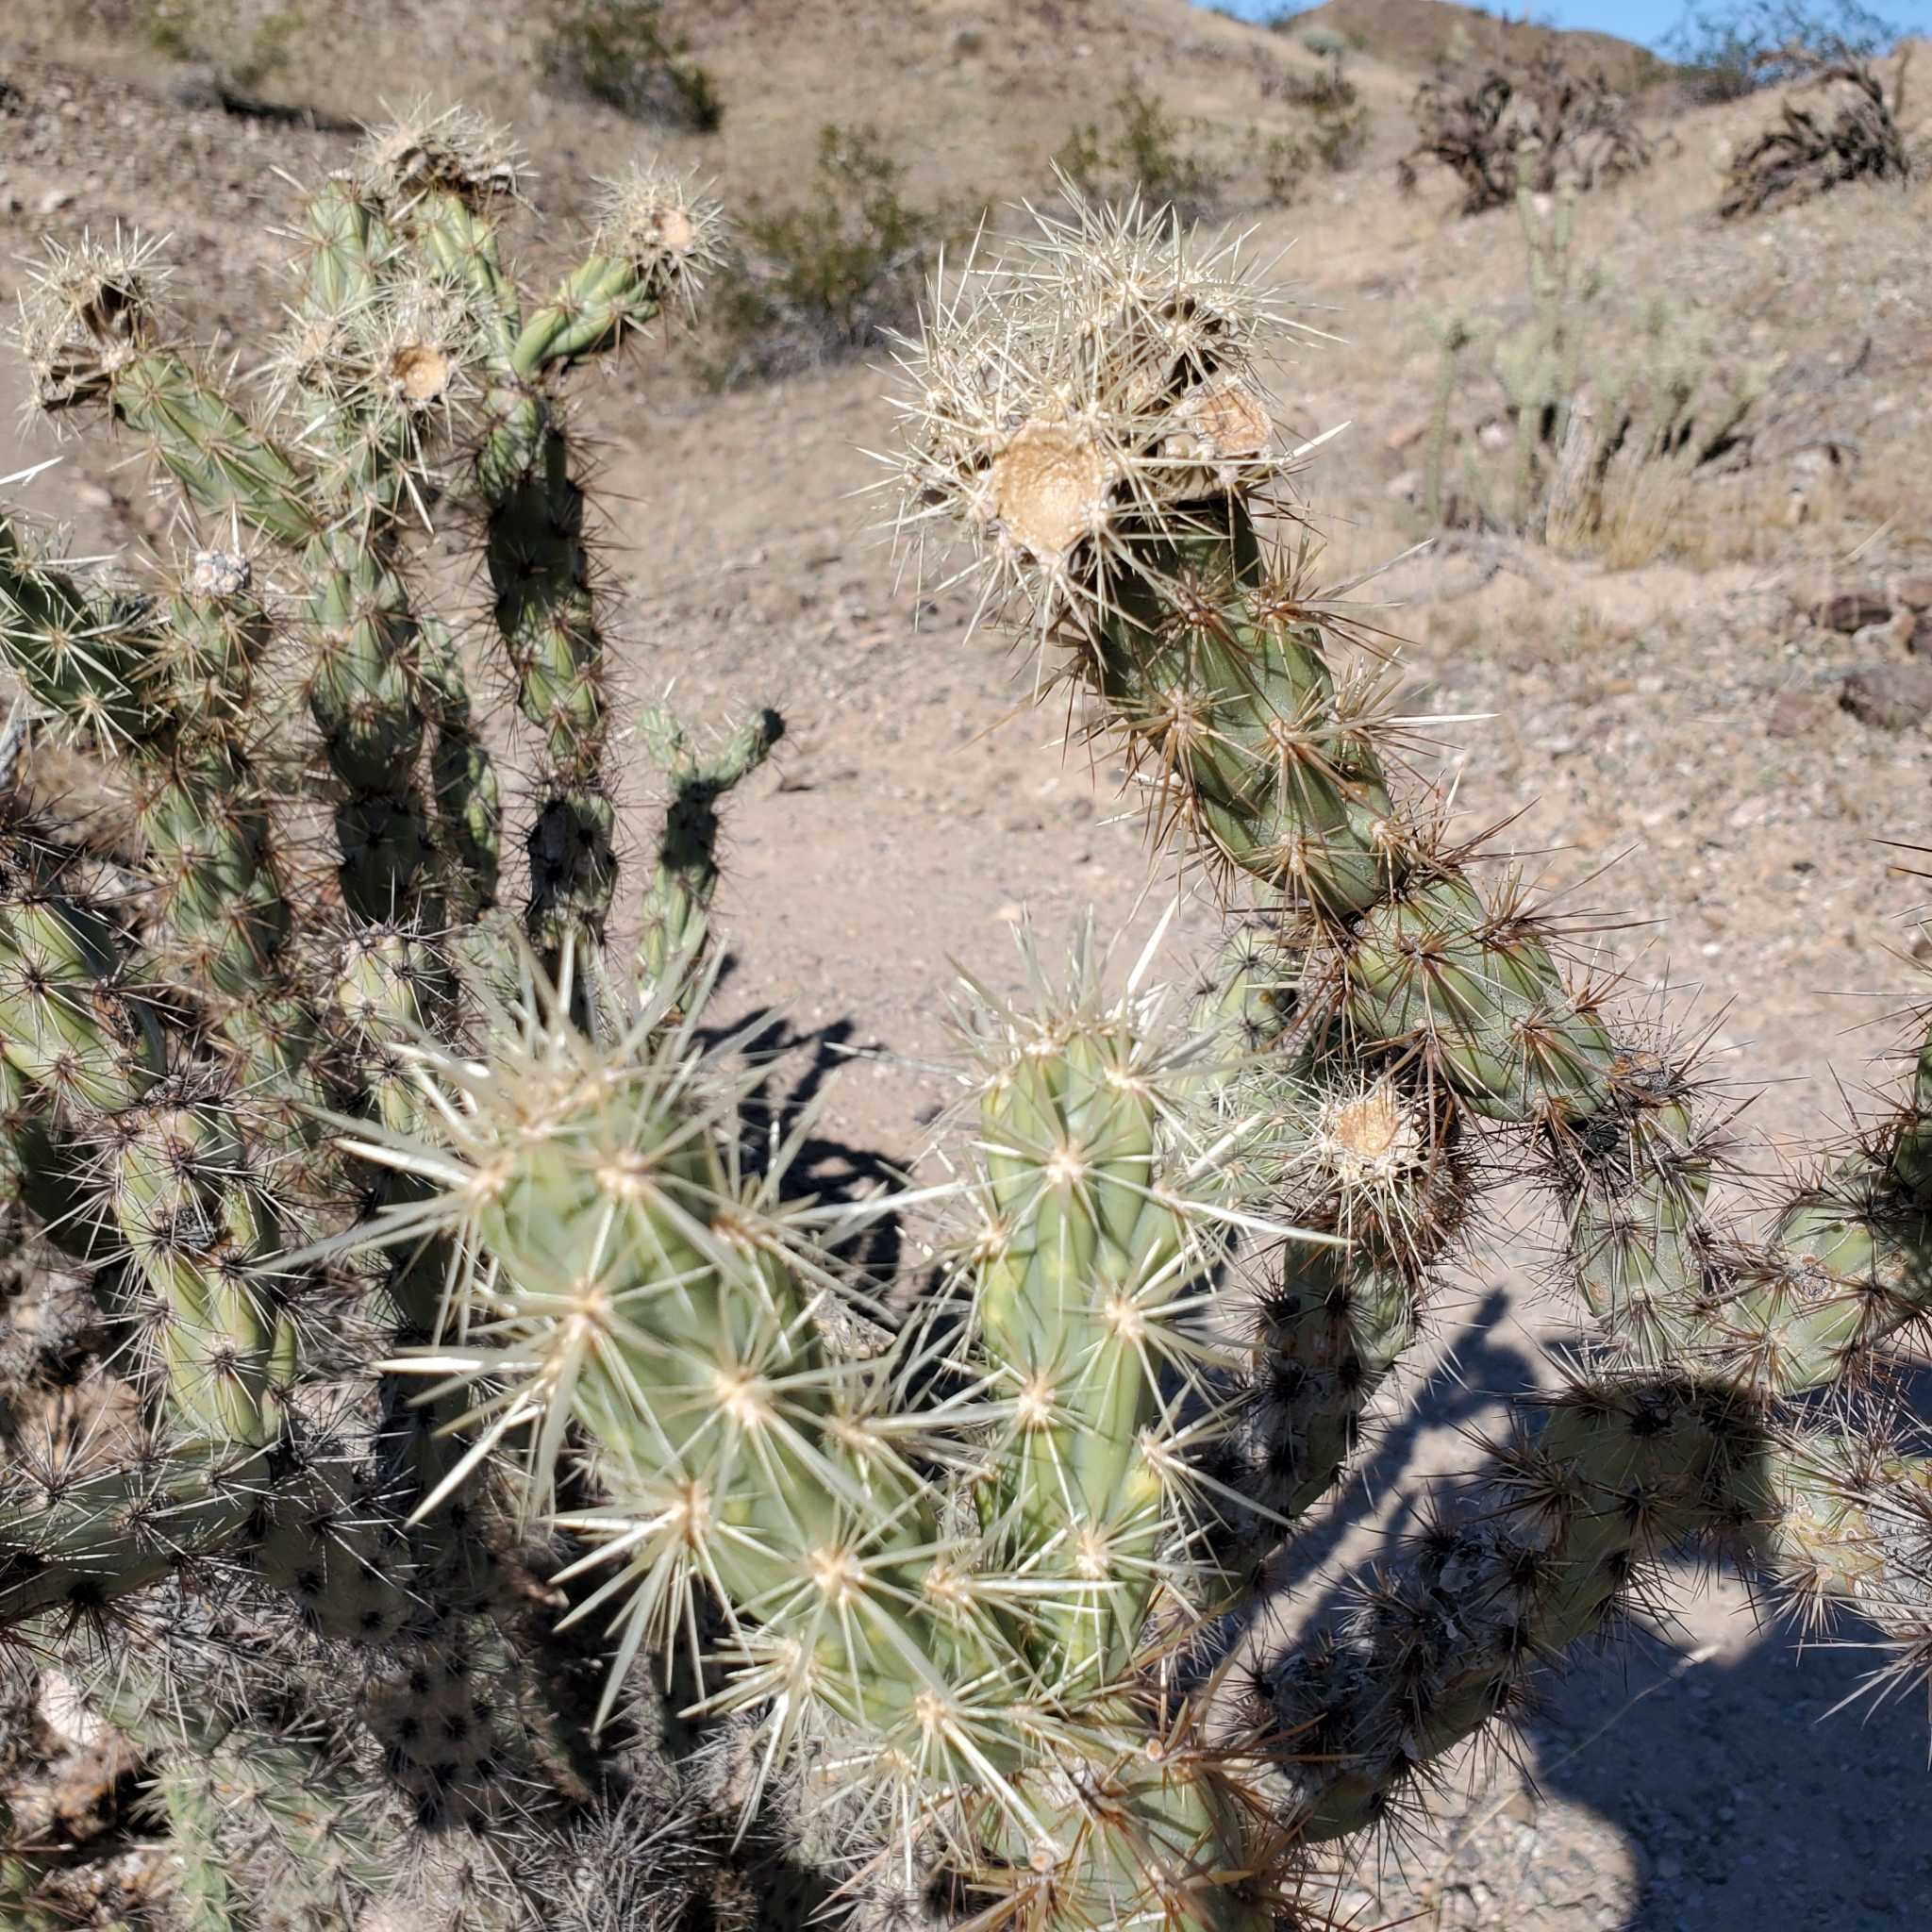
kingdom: Plantae
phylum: Tracheophyta
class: Magnoliopsida
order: Caryophyllales
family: Cactaceae
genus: Cylindropuntia
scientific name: Cylindropuntia acanthocarpa
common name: Buckhorn cholla
